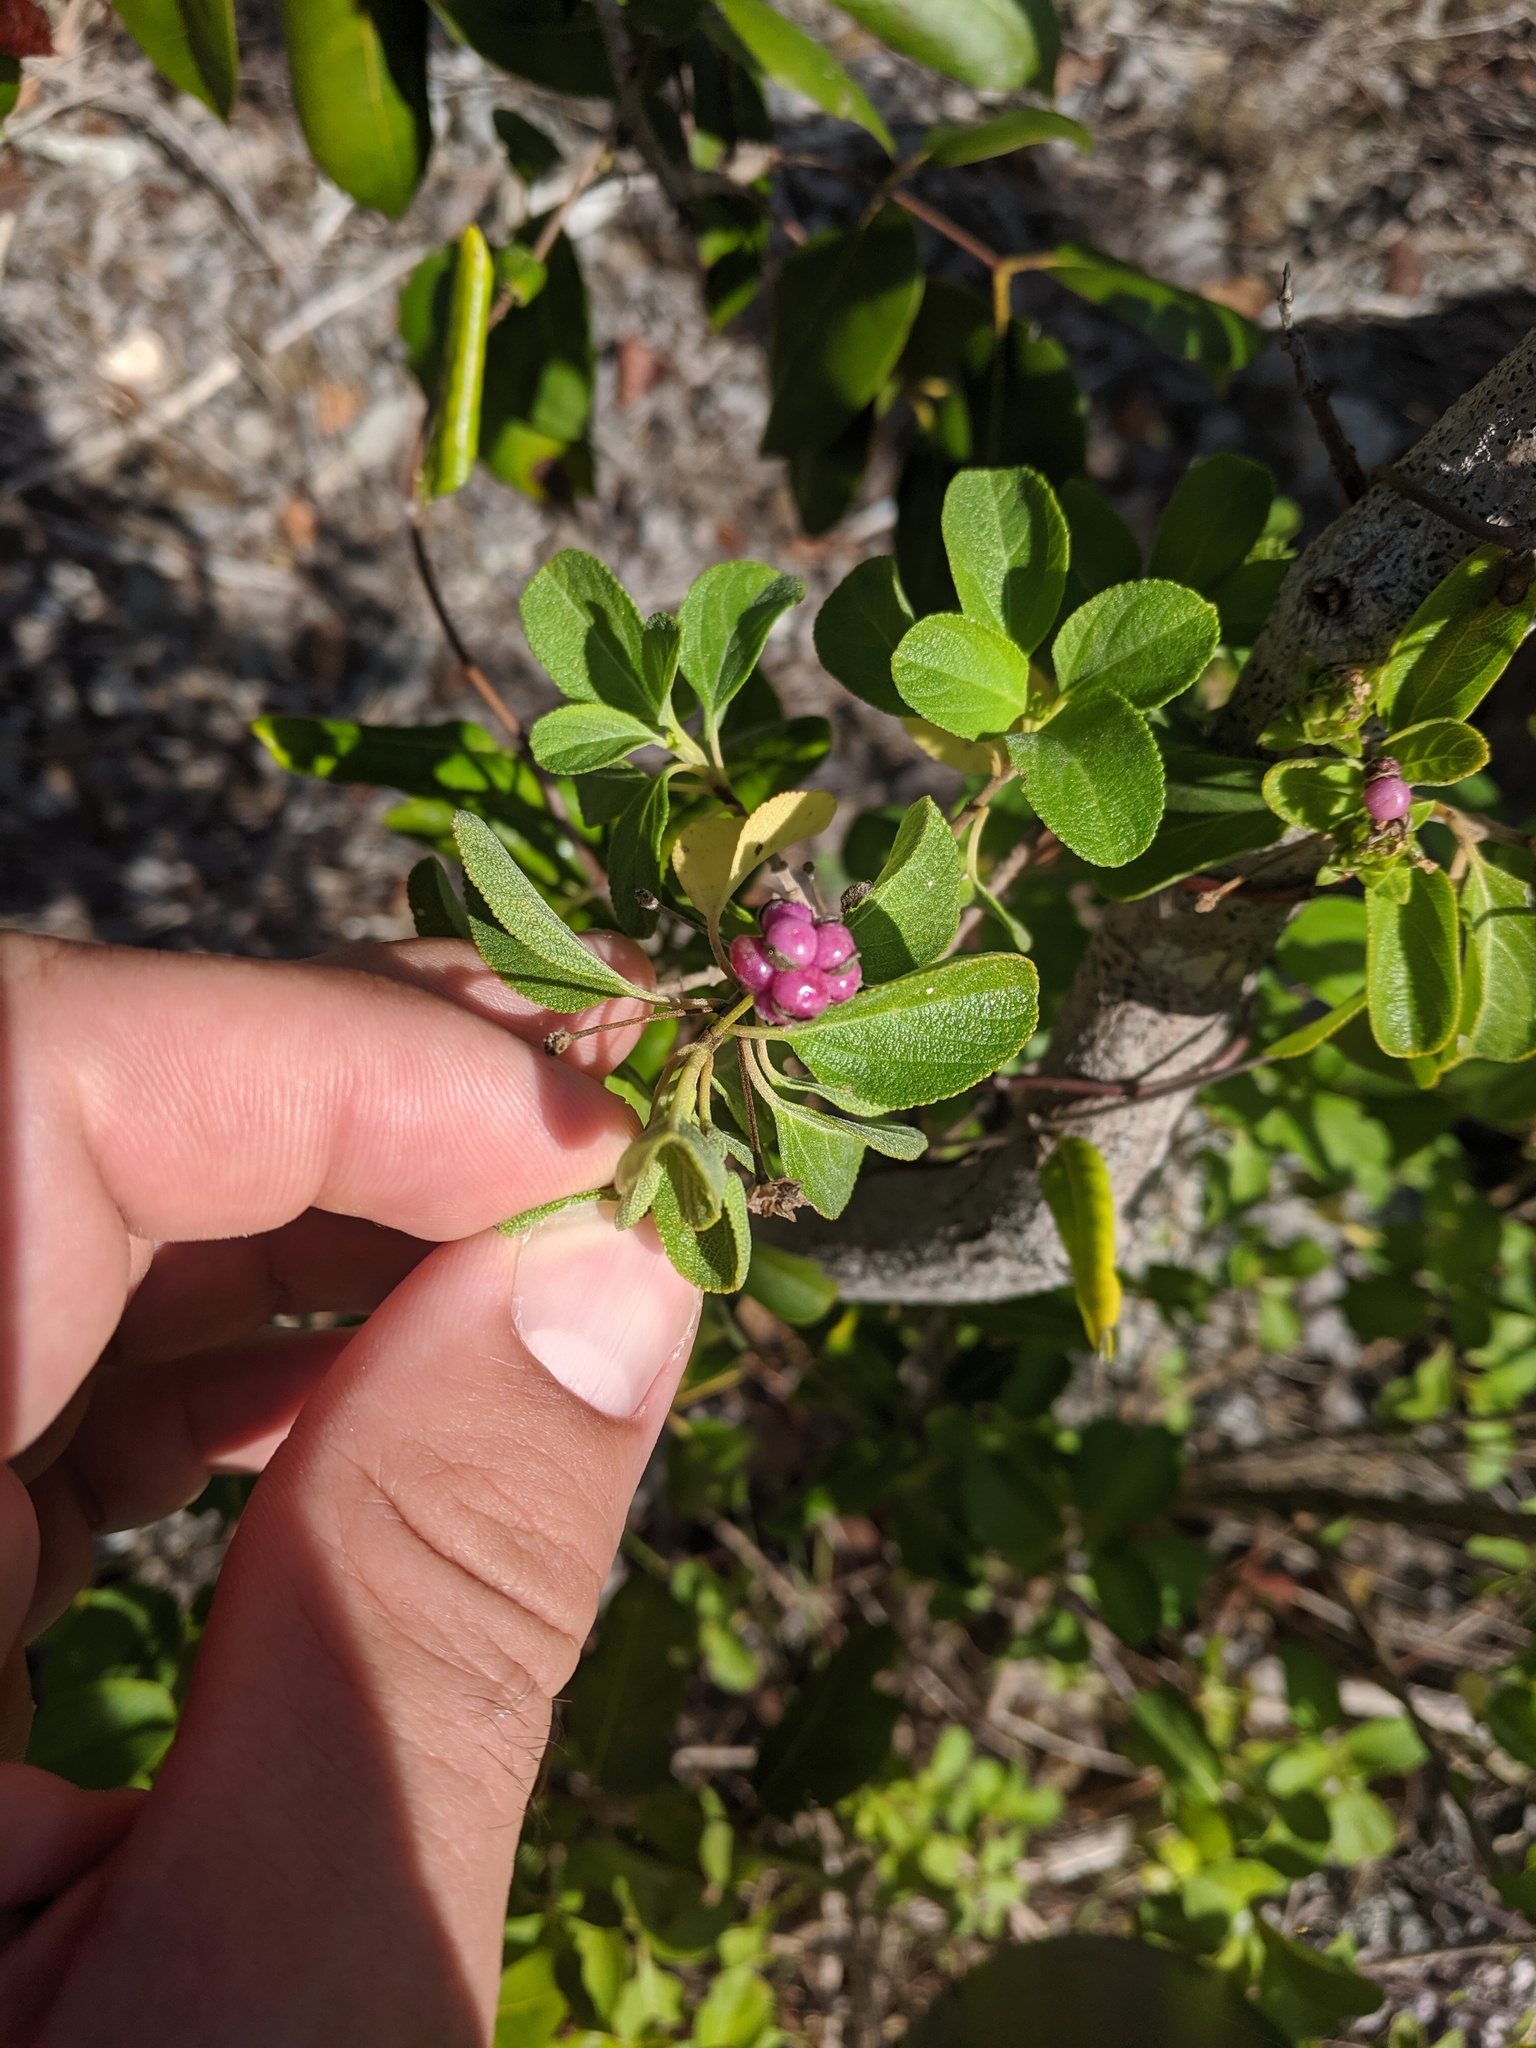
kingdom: Plantae
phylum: Tracheophyta
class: Magnoliopsida
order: Lamiales
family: Verbenaceae
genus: Lantana
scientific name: Lantana involucrata
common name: Black sage
